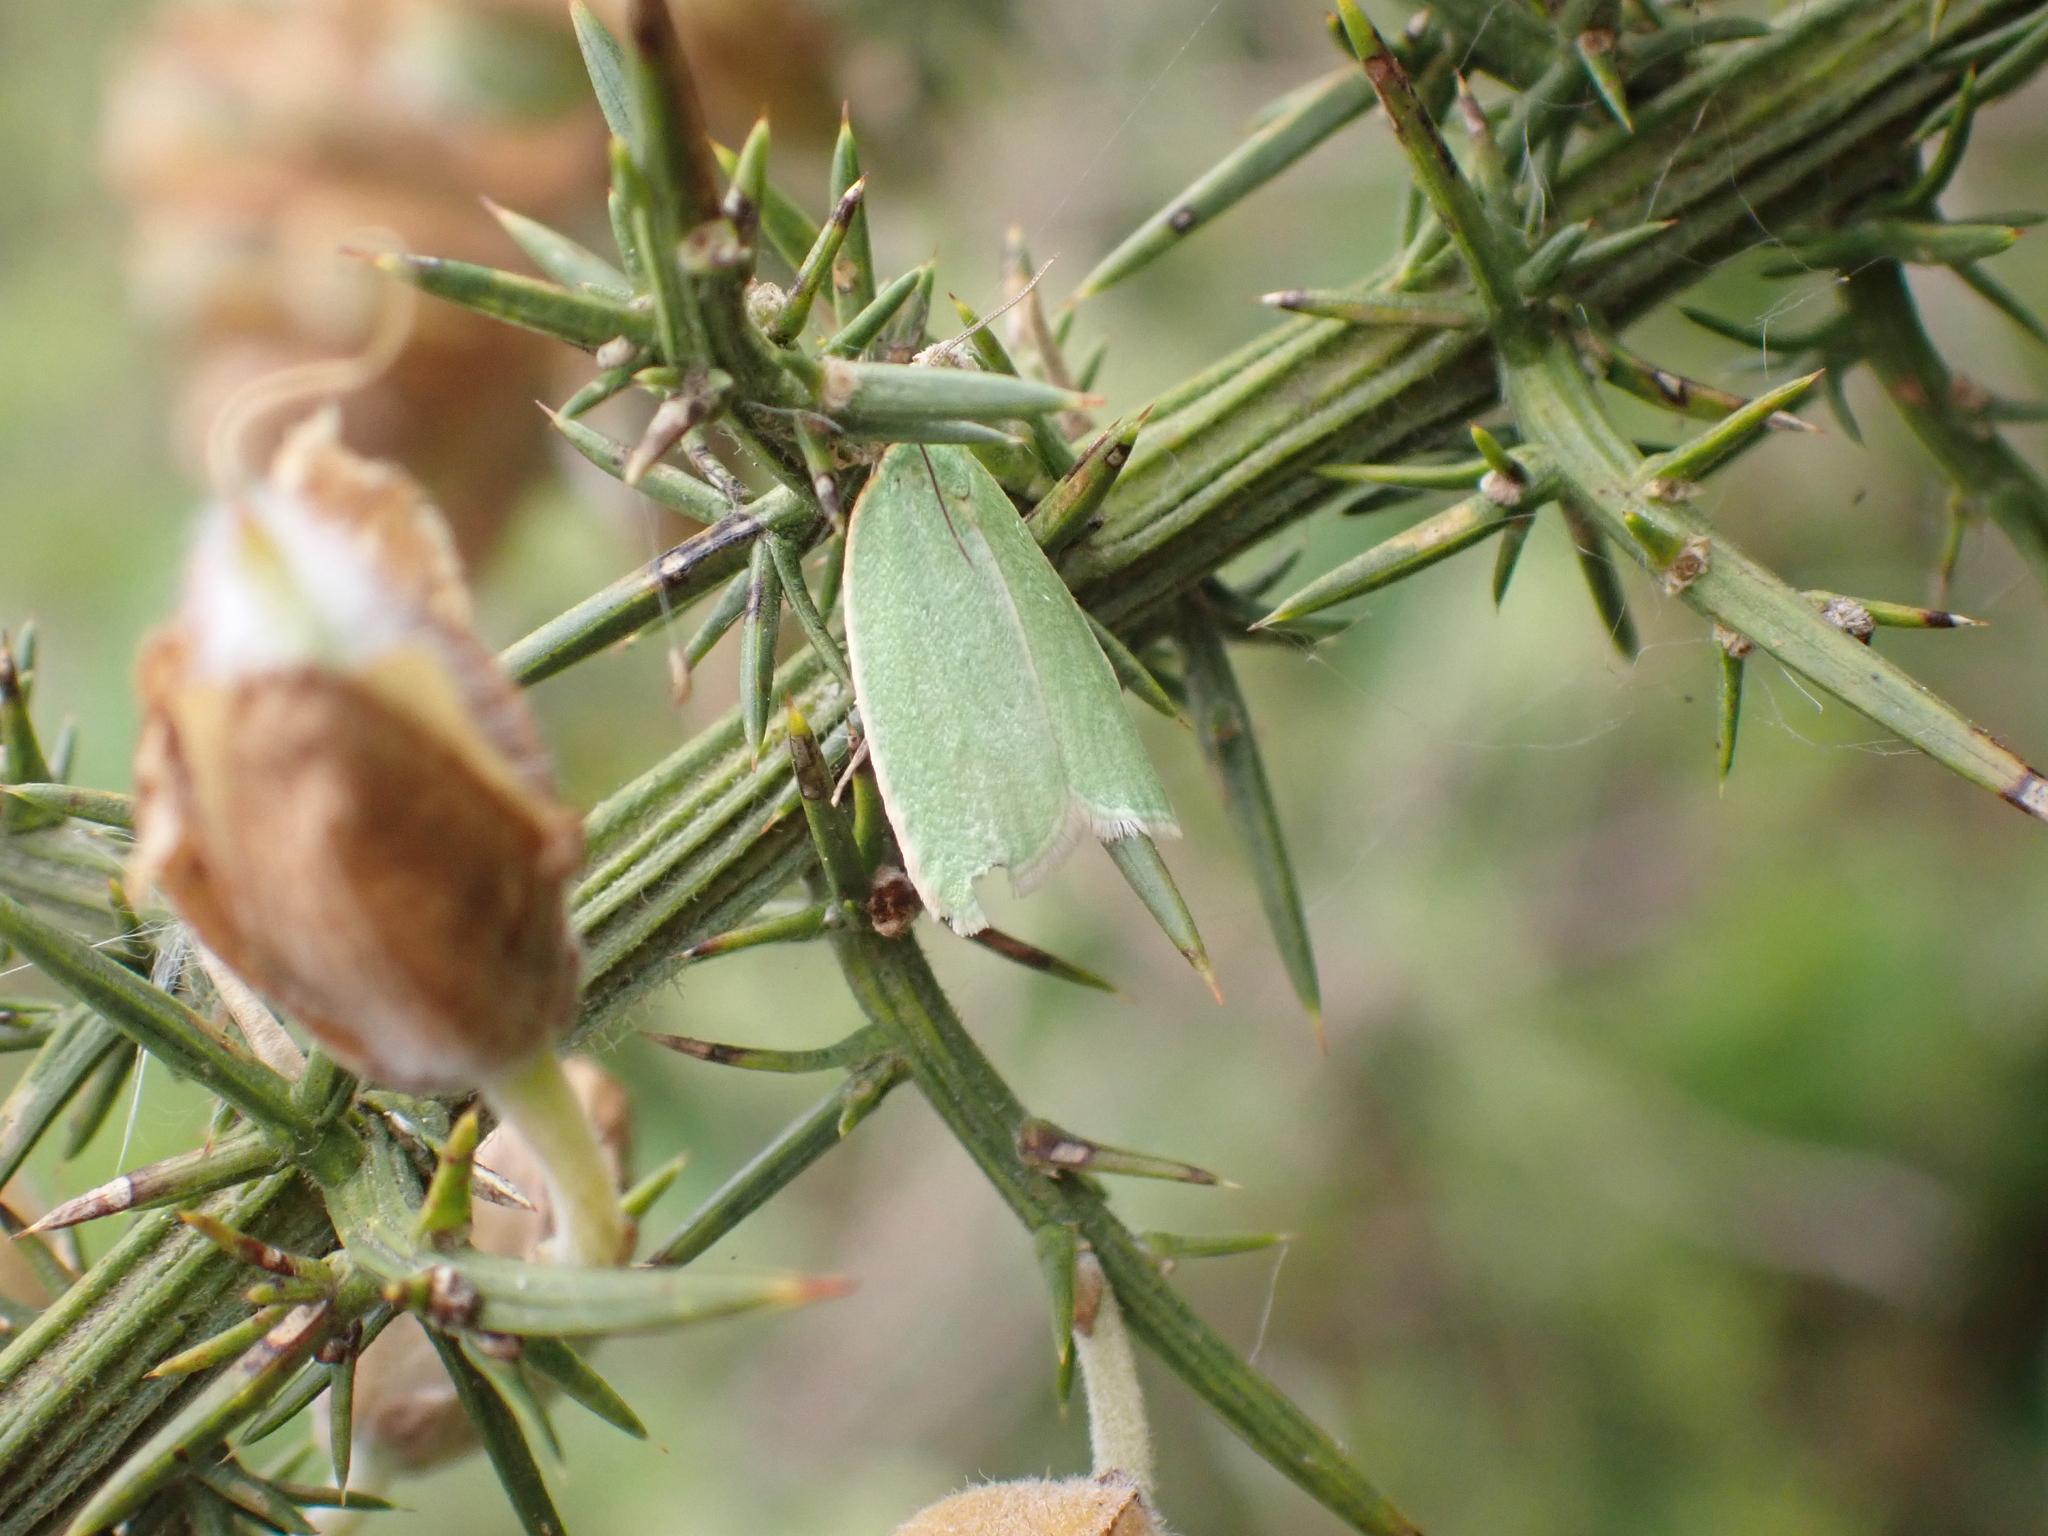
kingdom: Animalia
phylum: Arthropoda
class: Insecta
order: Lepidoptera
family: Tortricidae
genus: Tortrix
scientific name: Tortrix viridana
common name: Green oak tortrix
